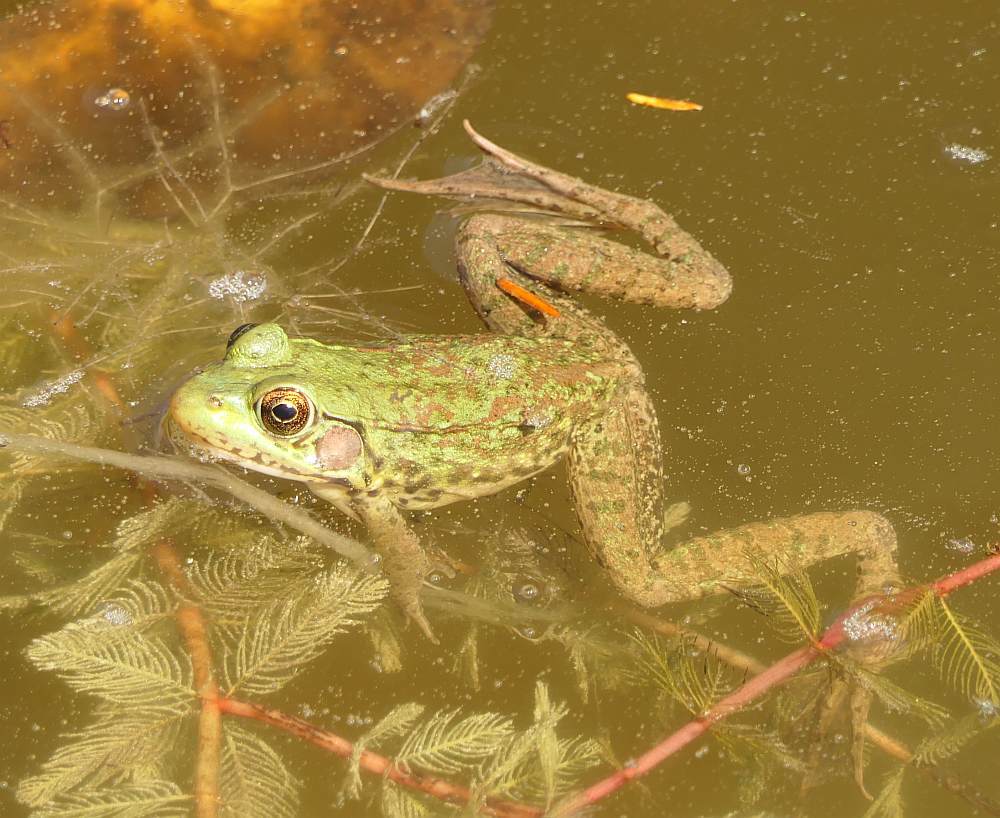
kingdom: Animalia
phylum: Chordata
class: Amphibia
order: Anura
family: Ranidae
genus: Lithobates
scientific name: Lithobates clamitans
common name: Green frog
